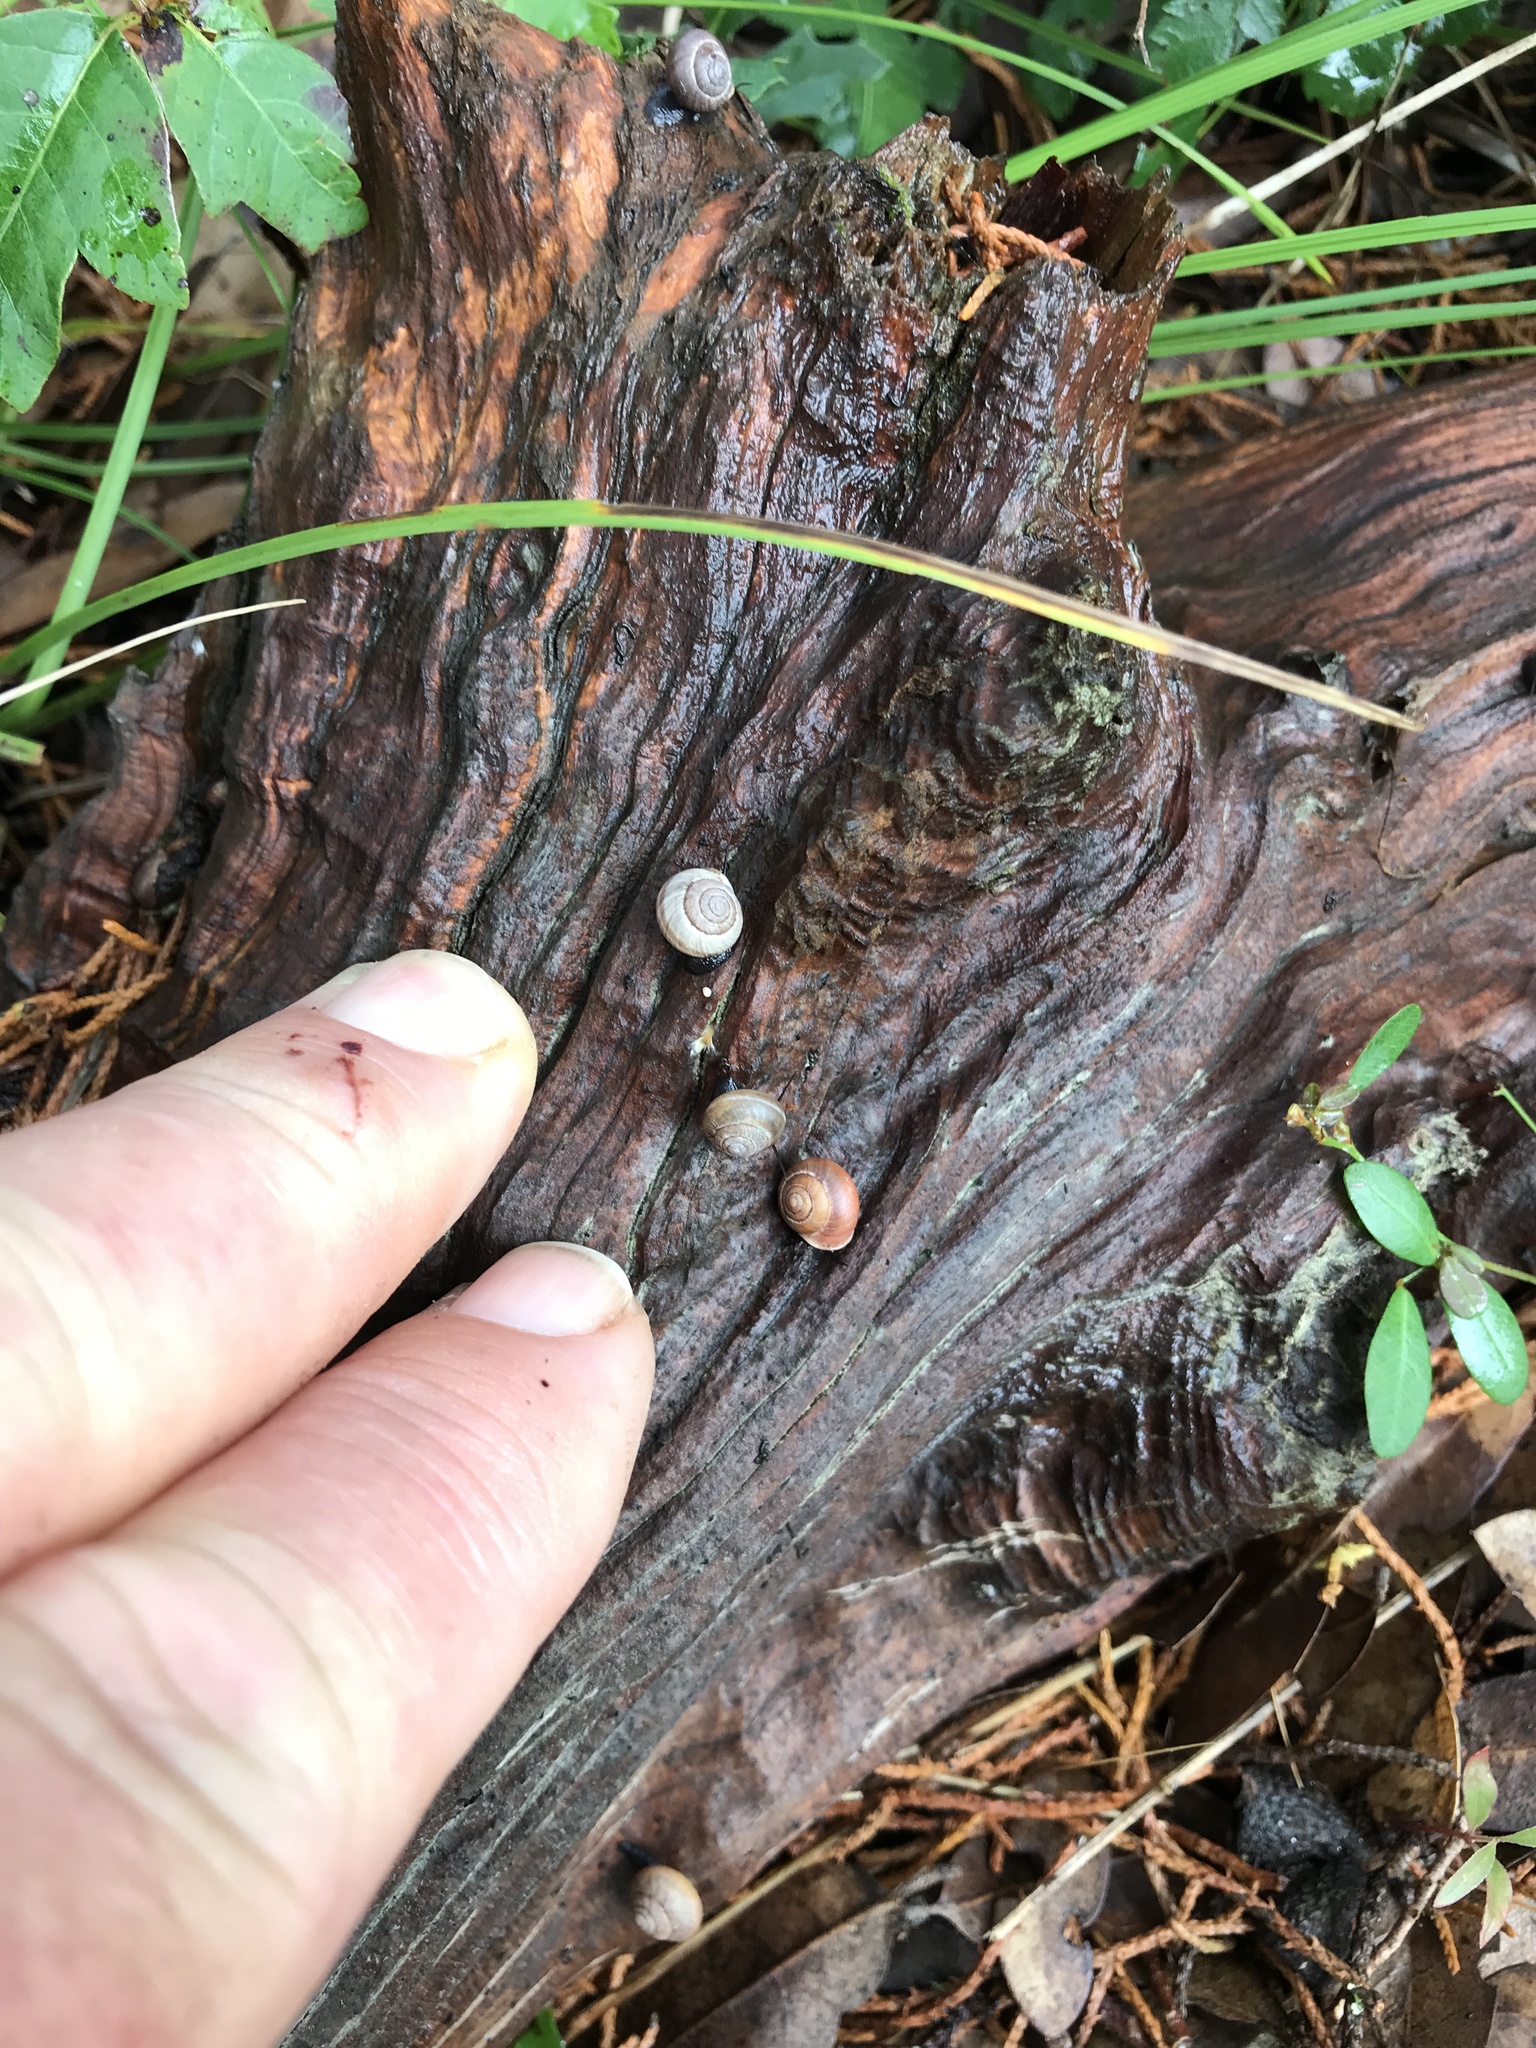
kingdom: Animalia
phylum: Mollusca
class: Gastropoda
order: Cycloneritida
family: Helicinidae
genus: Helicina
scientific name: Helicina orbiculata
